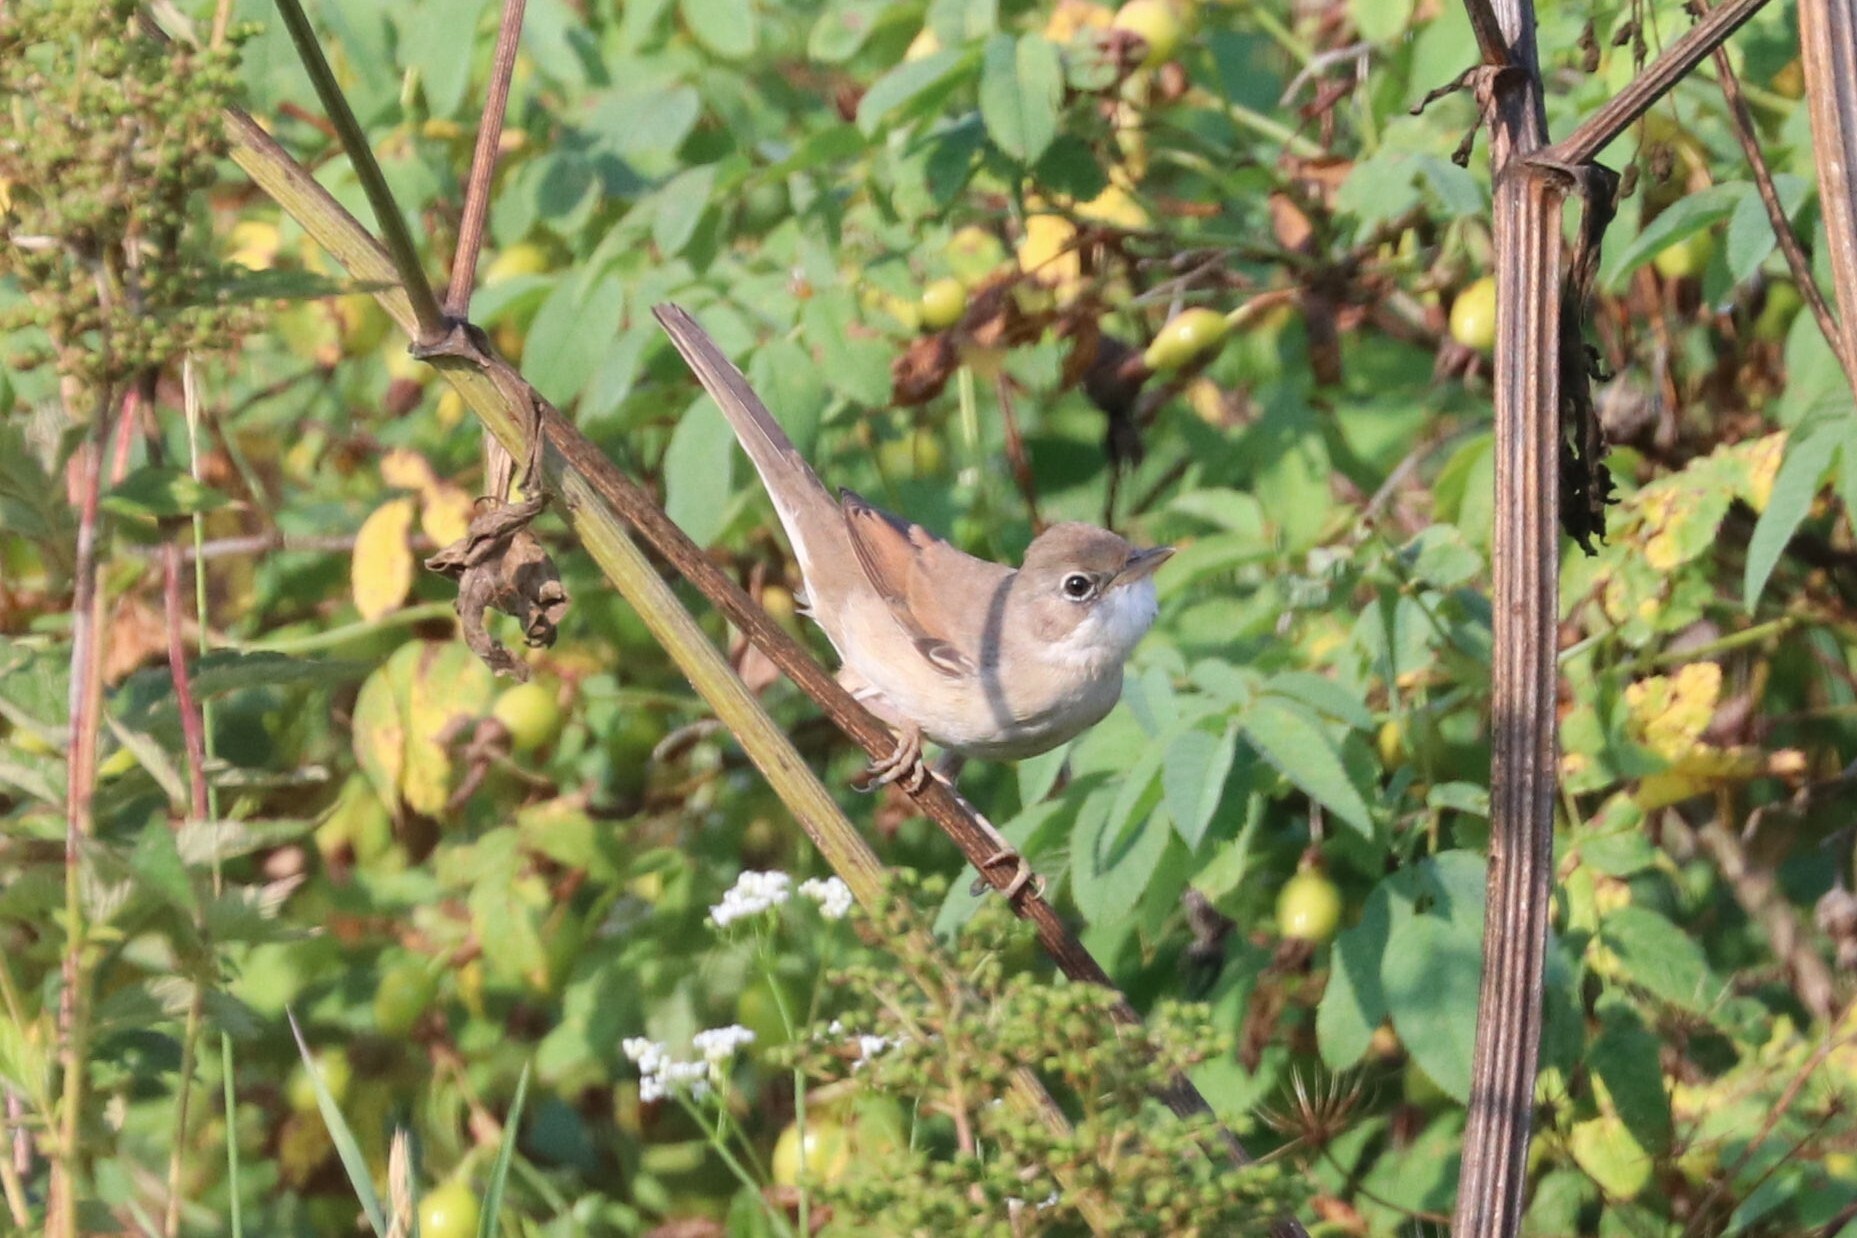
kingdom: Animalia
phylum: Chordata
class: Aves
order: Passeriformes
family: Sylviidae
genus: Sylvia
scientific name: Sylvia communis
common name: Common whitethroat
